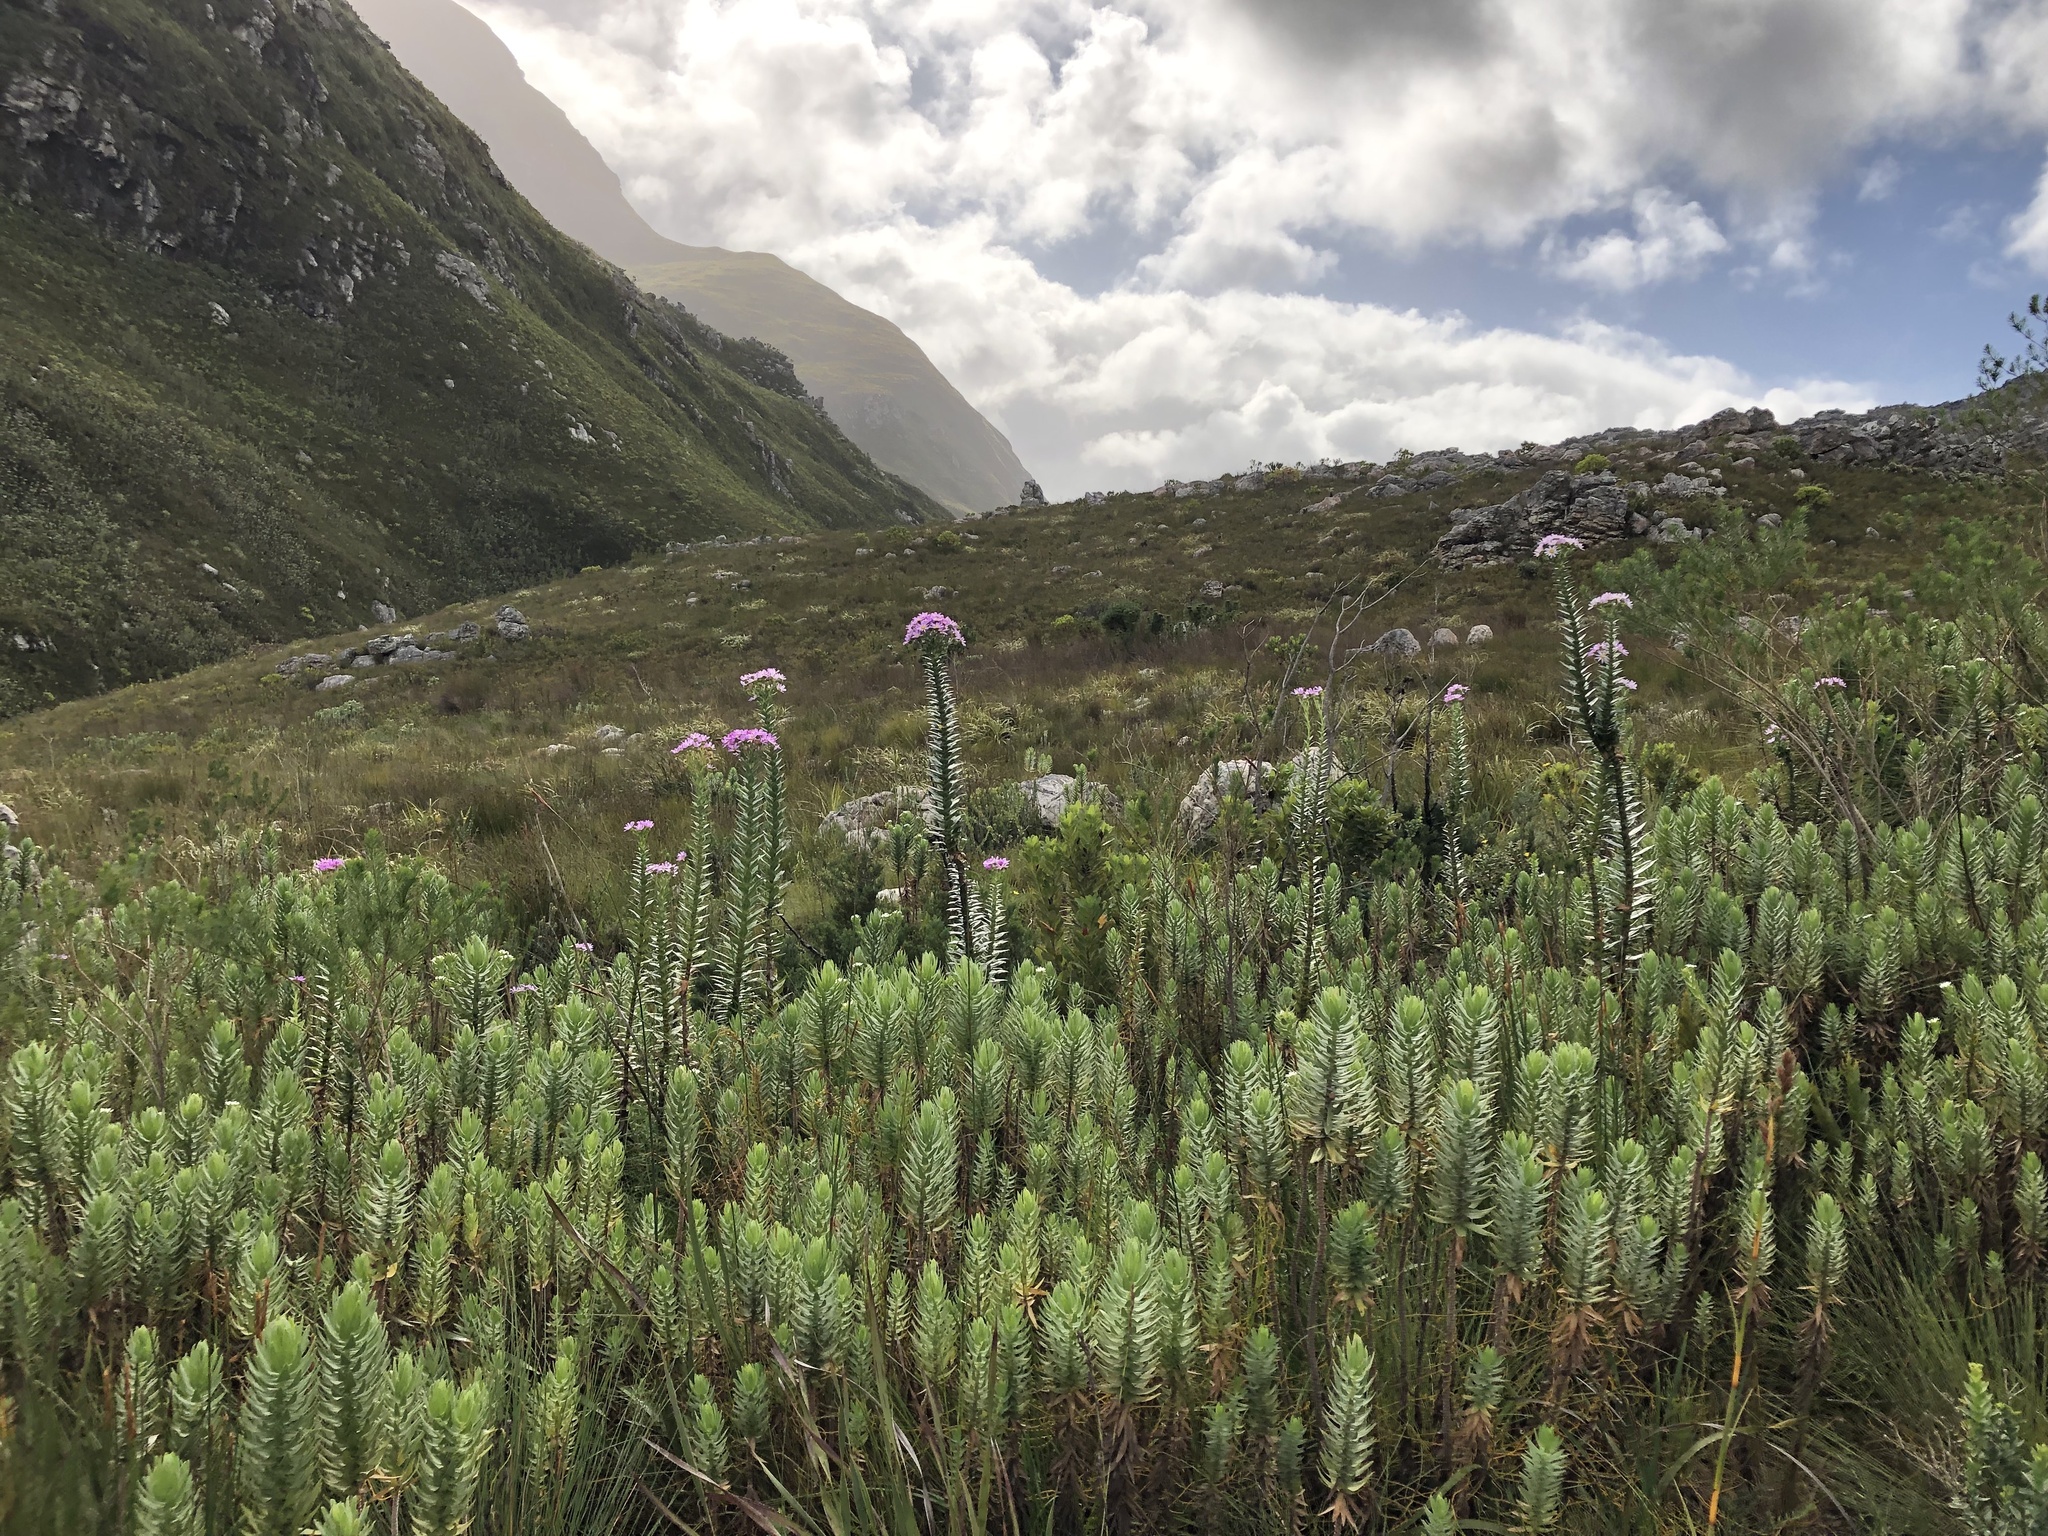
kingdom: Plantae
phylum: Tracheophyta
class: Magnoliopsida
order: Asterales
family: Asteraceae
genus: Senecio
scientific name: Senecio speciosissimus
